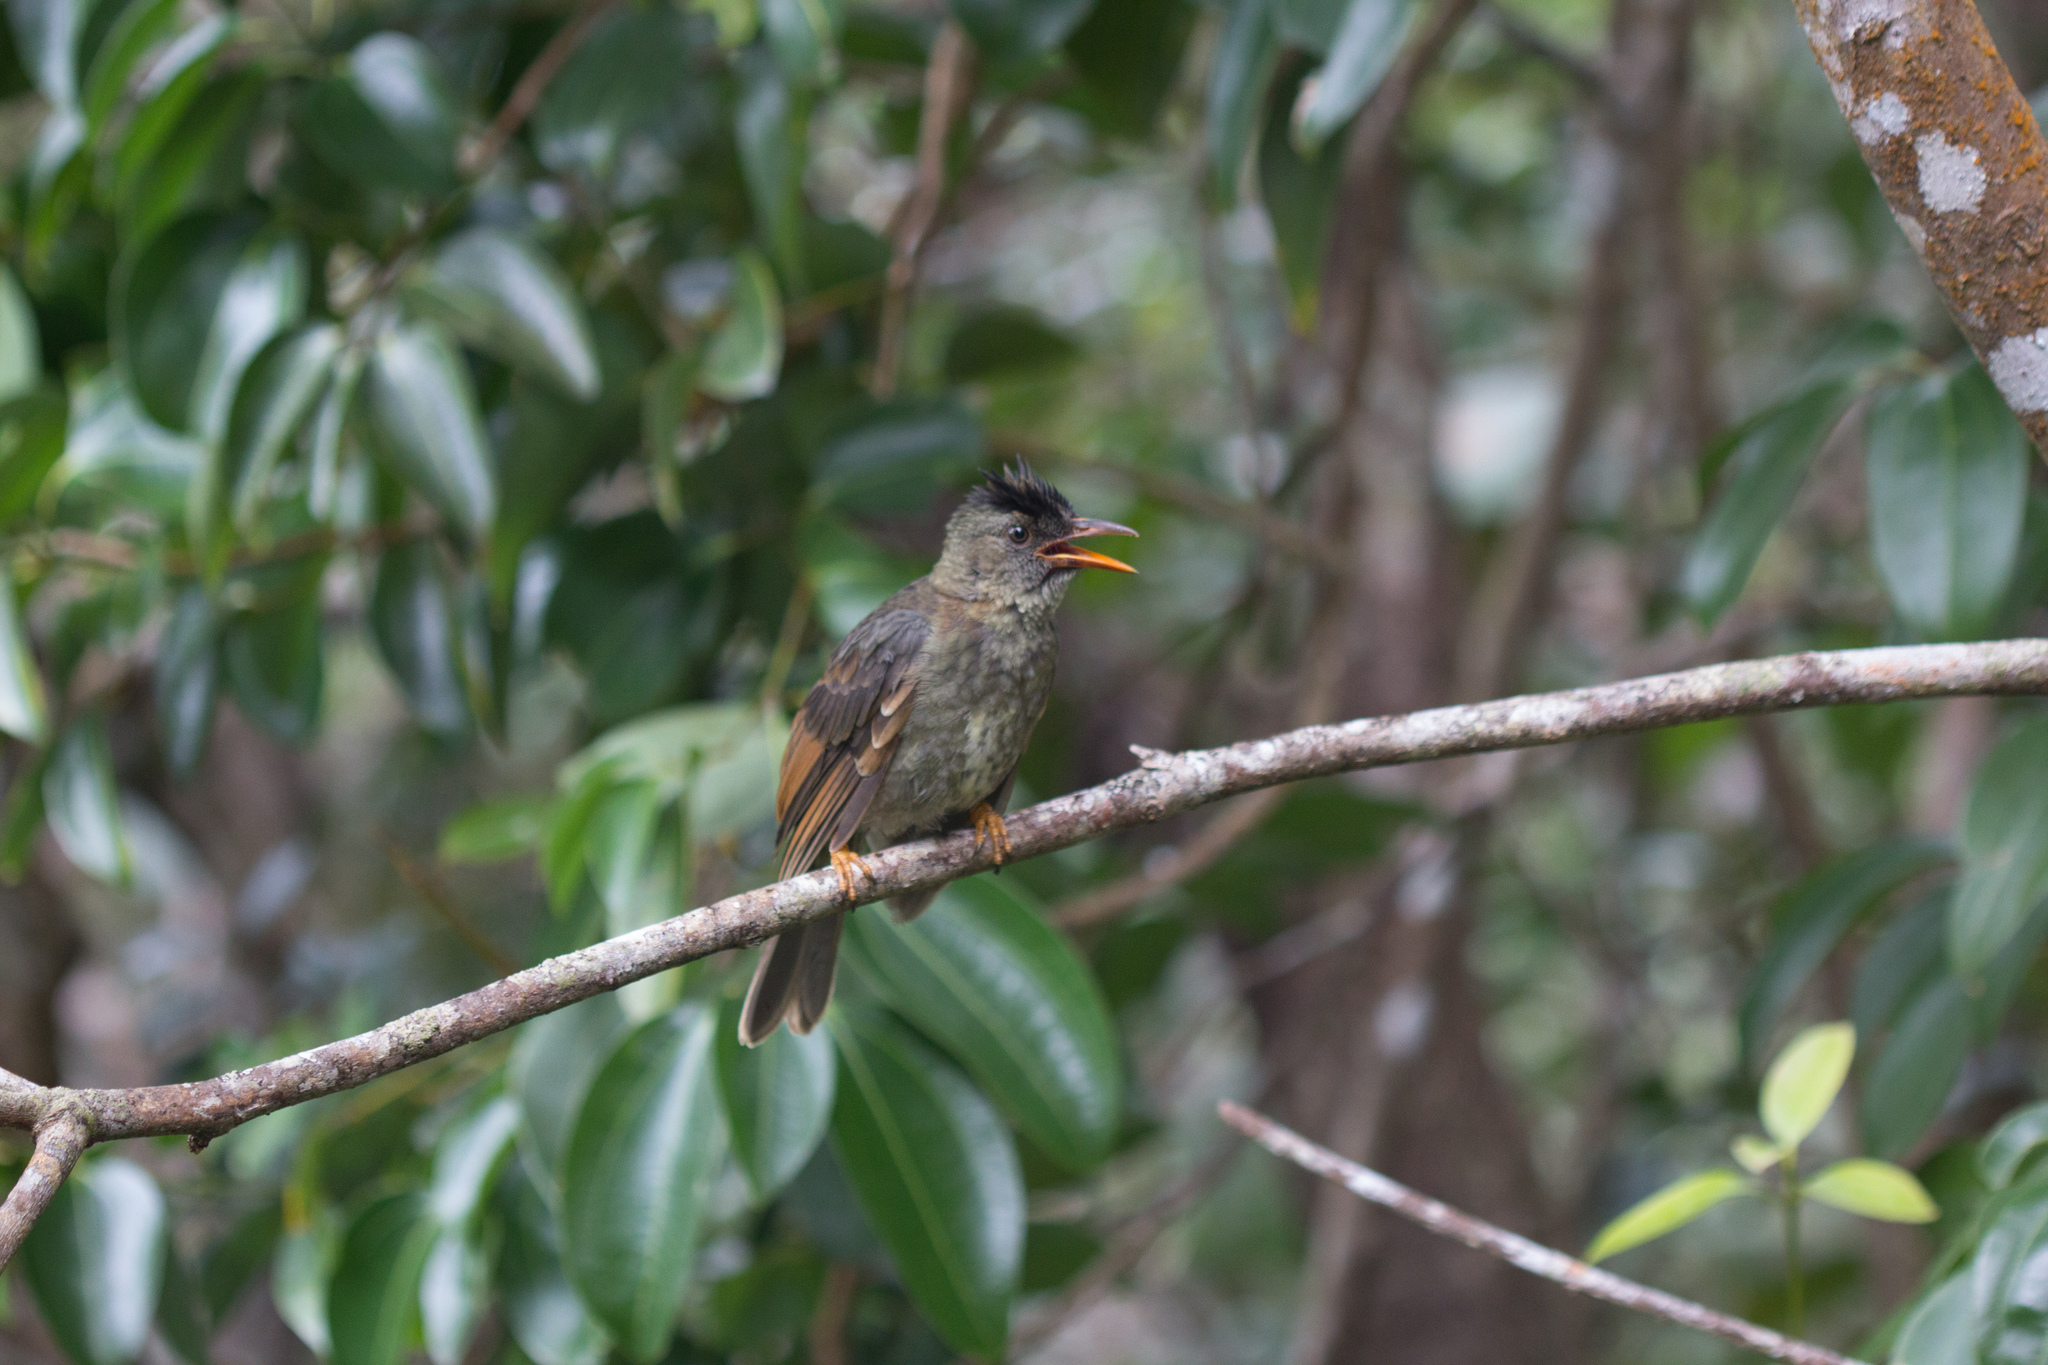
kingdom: Animalia
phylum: Chordata
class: Aves
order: Passeriformes
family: Pycnonotidae
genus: Hypsipetes
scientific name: Hypsipetes crassirostris
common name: Seychelles bulbul
